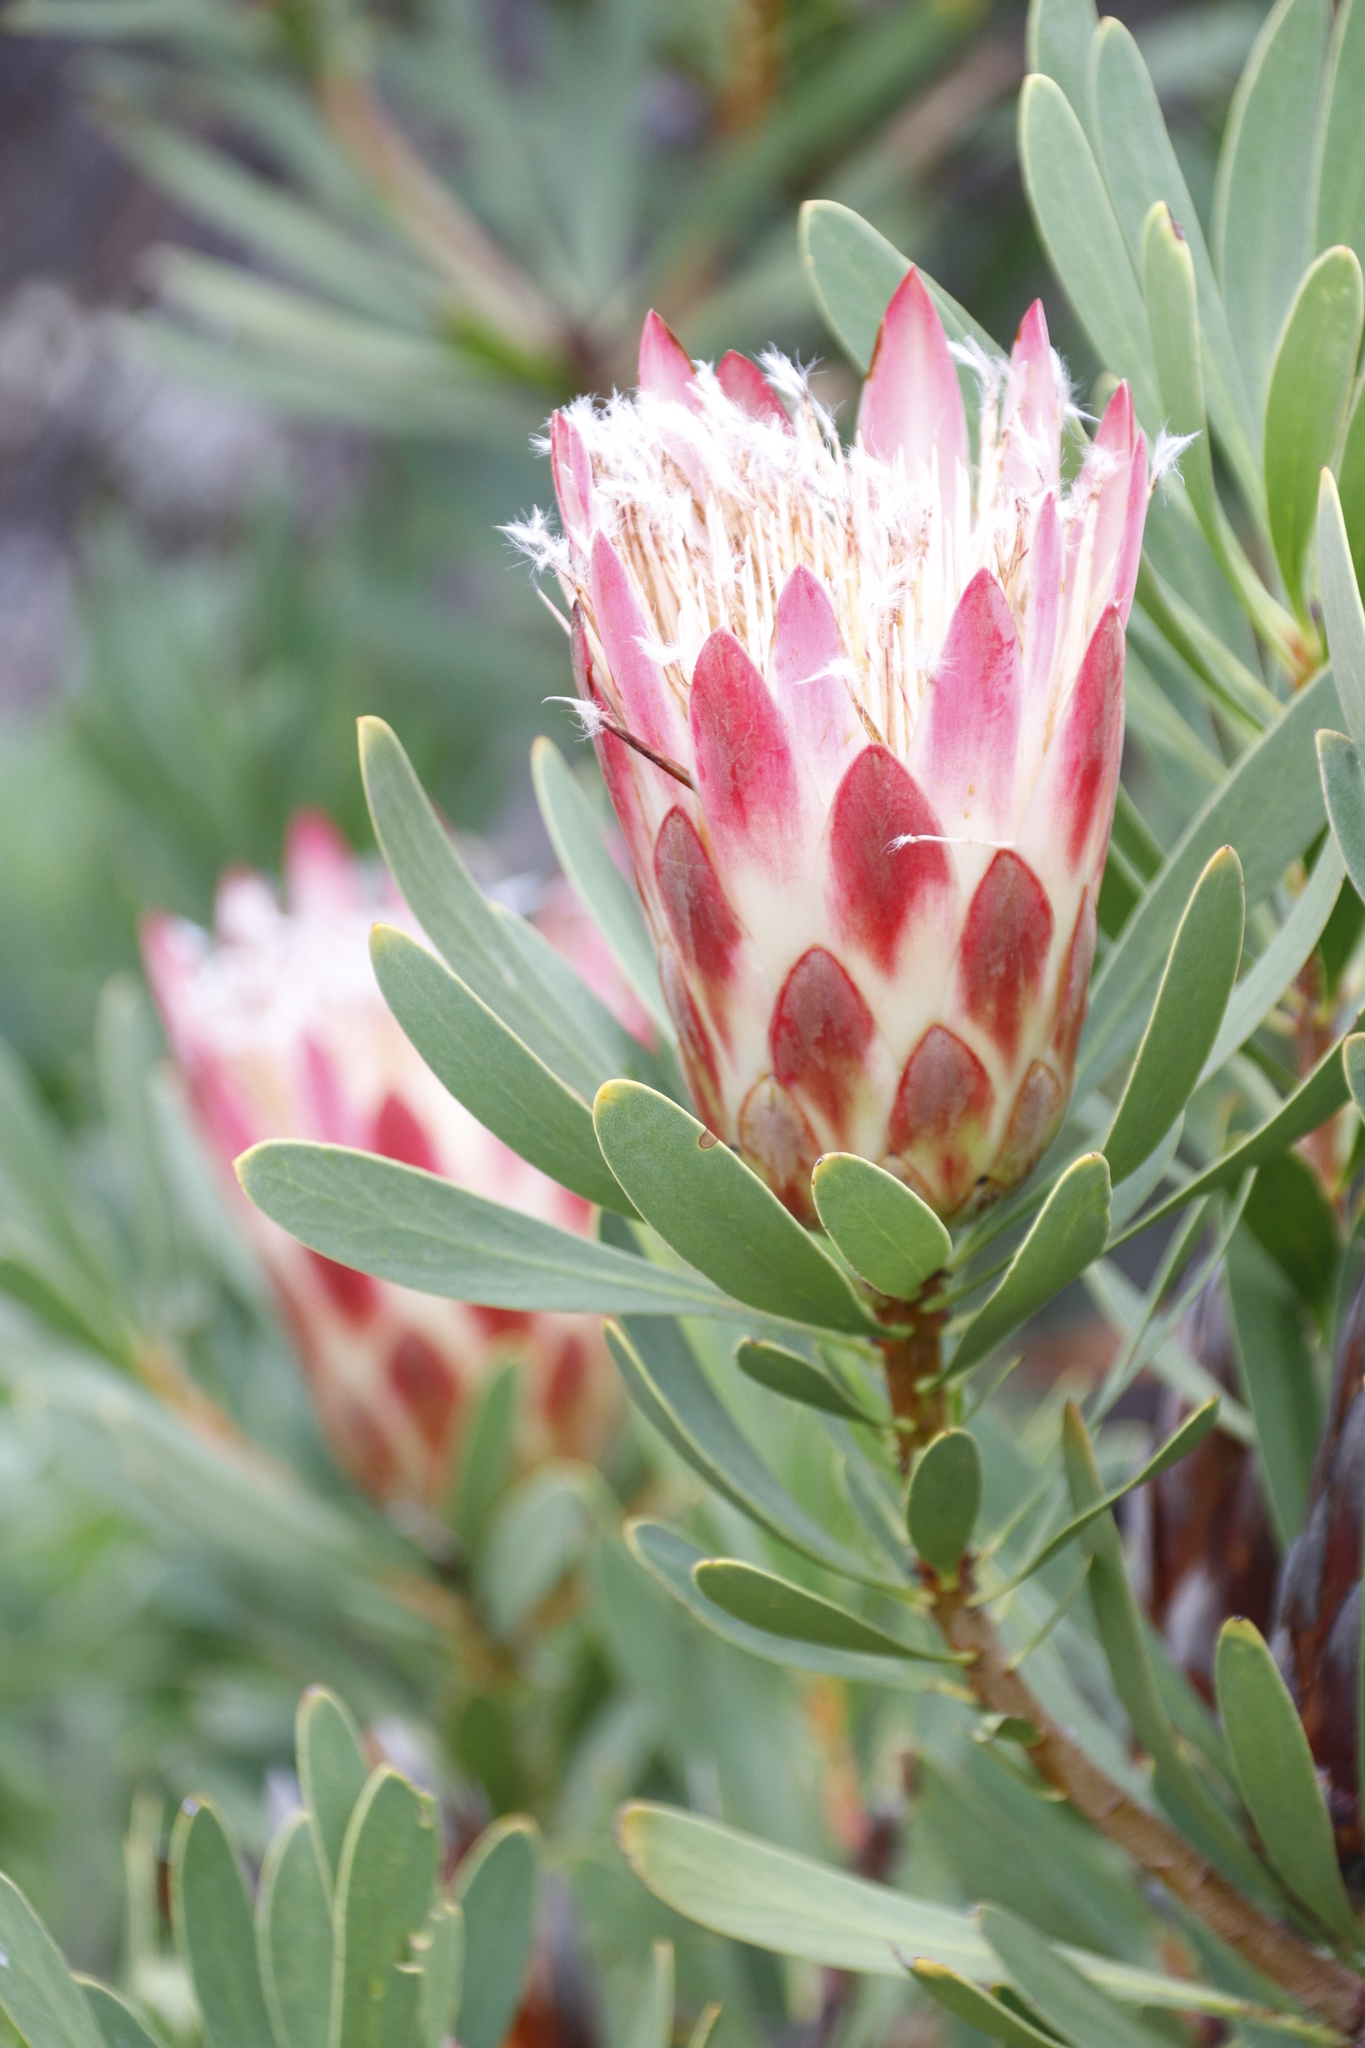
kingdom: Plantae
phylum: Tracheophyta
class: Magnoliopsida
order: Proteales
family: Proteaceae
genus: Protea
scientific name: Protea repens
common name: Sugarbush
